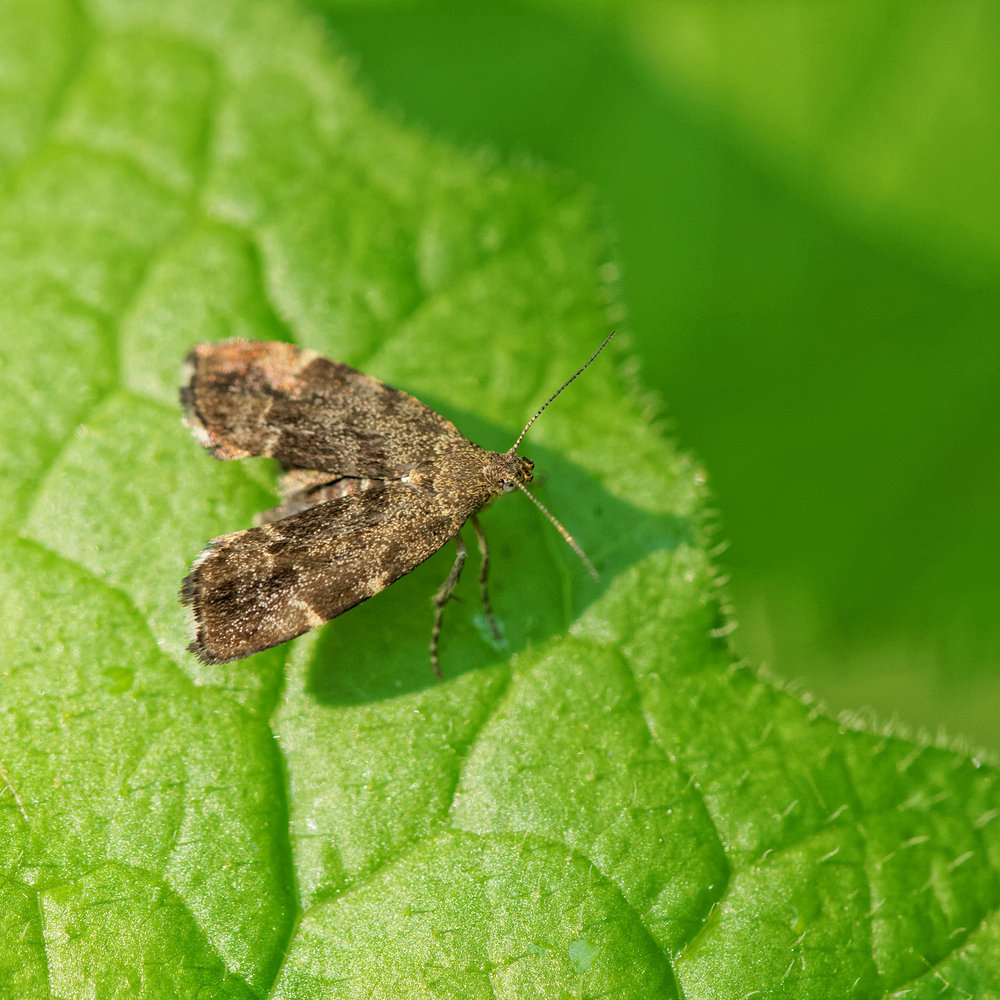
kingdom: Animalia
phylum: Arthropoda
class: Insecta
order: Lepidoptera
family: Choreutidae
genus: Anthophila
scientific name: Anthophila fabriciana
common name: Nettle-tap
